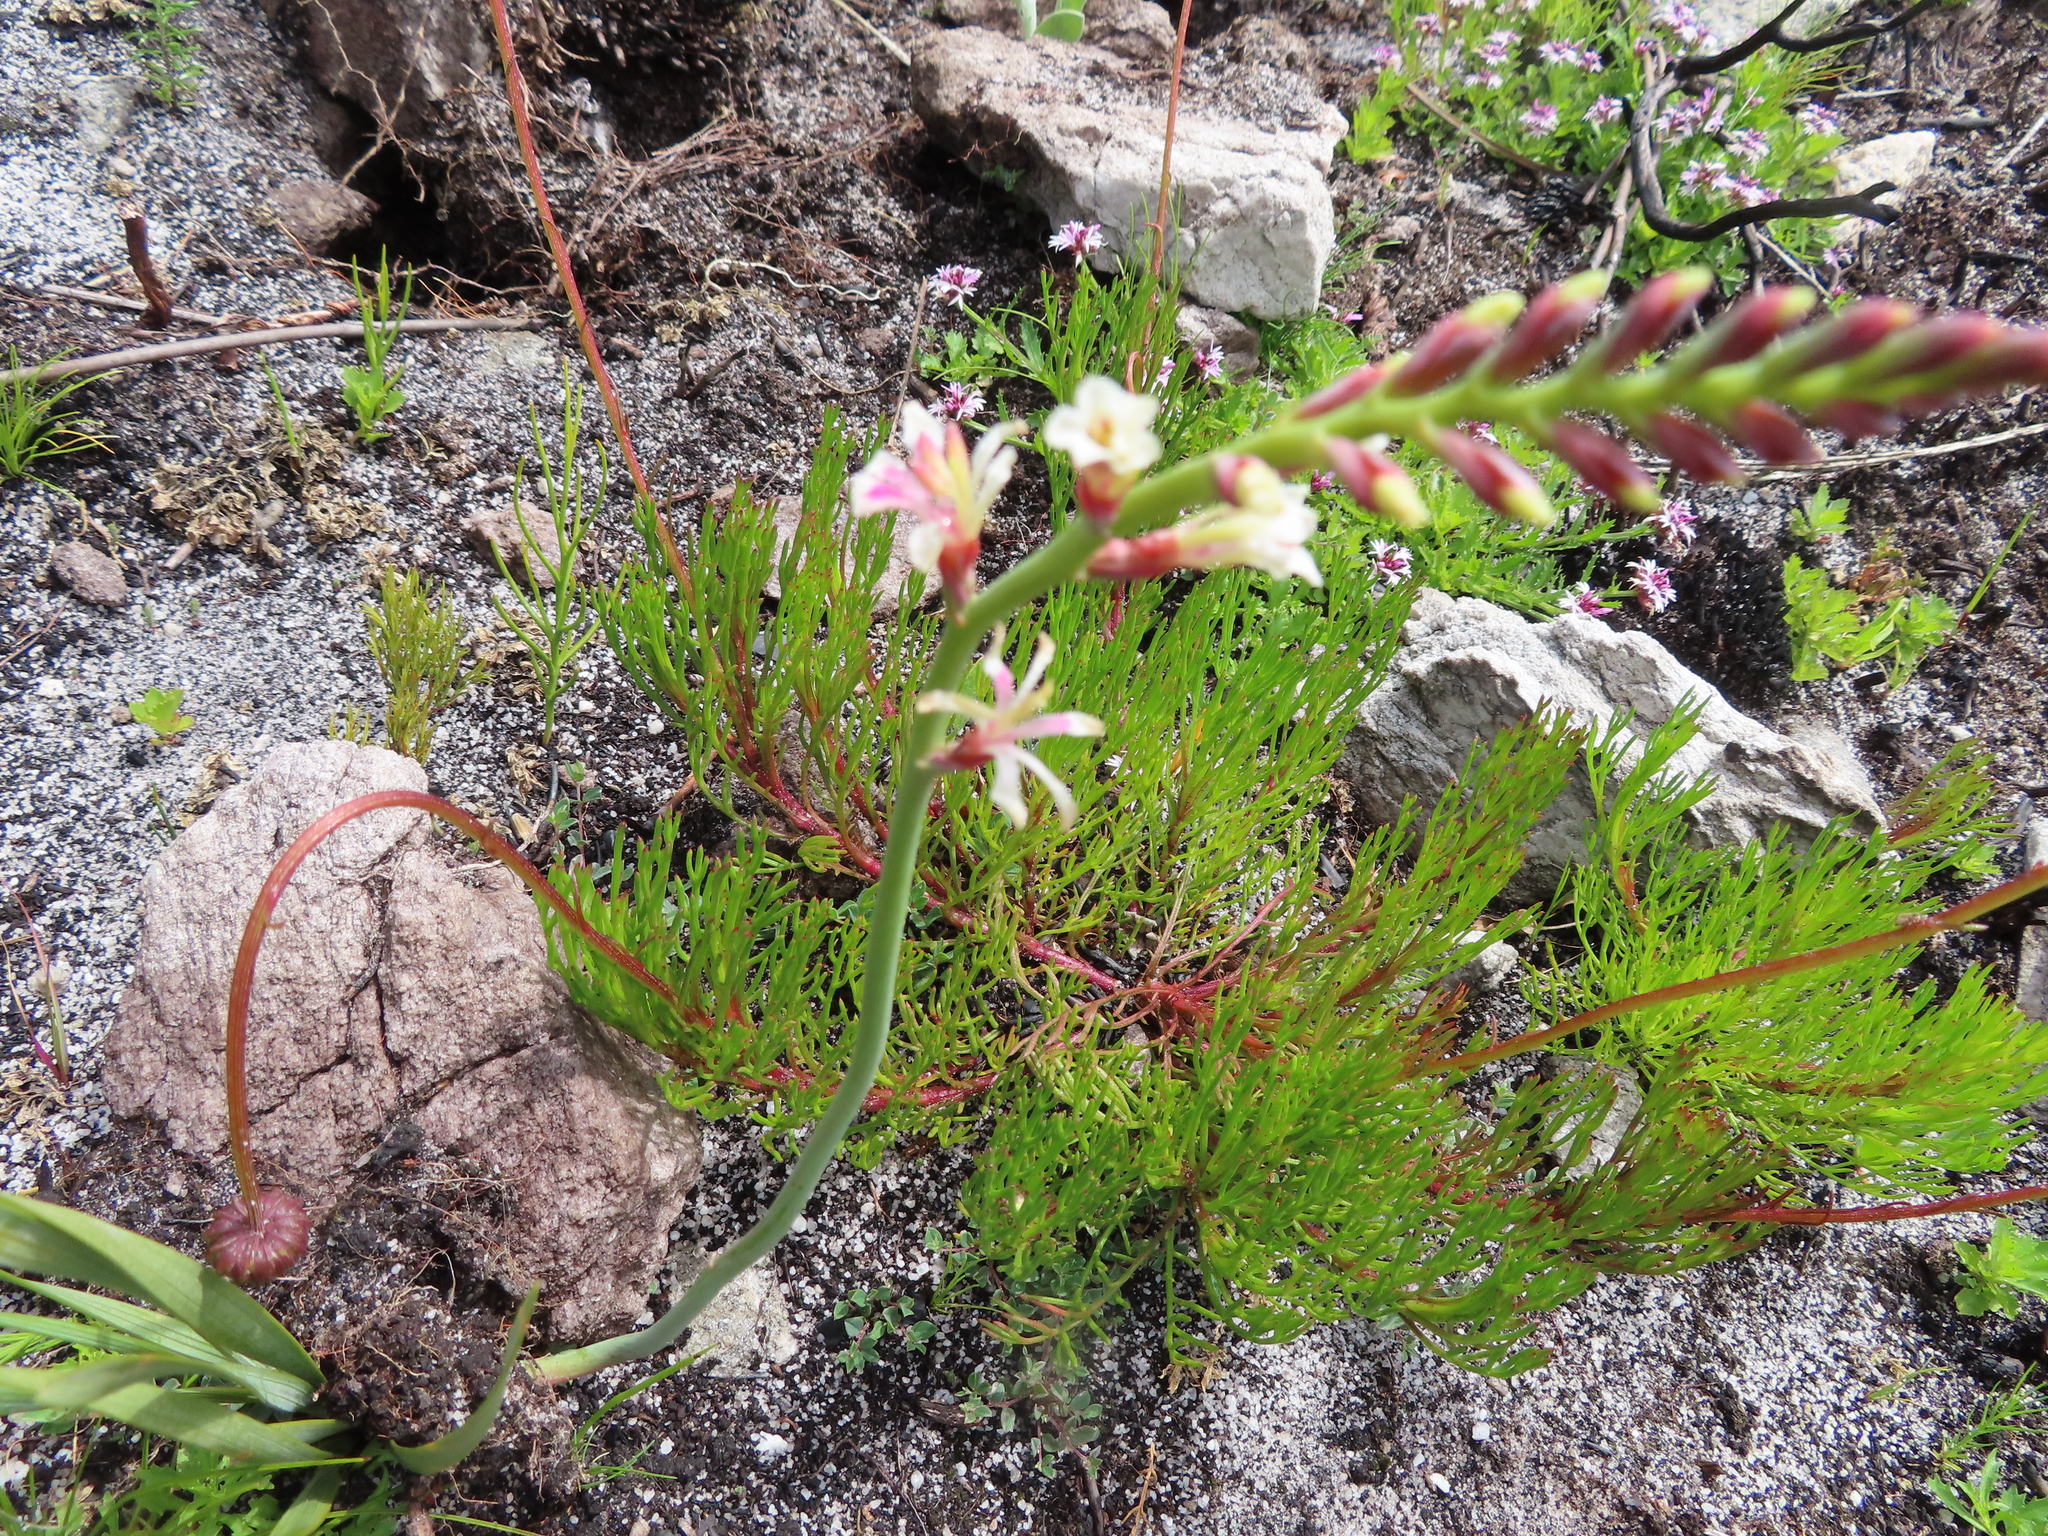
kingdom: Plantae
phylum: Tracheophyta
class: Liliopsida
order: Asparagales
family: Iridaceae
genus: Tritoniopsis
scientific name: Tritoniopsis unguicularis
